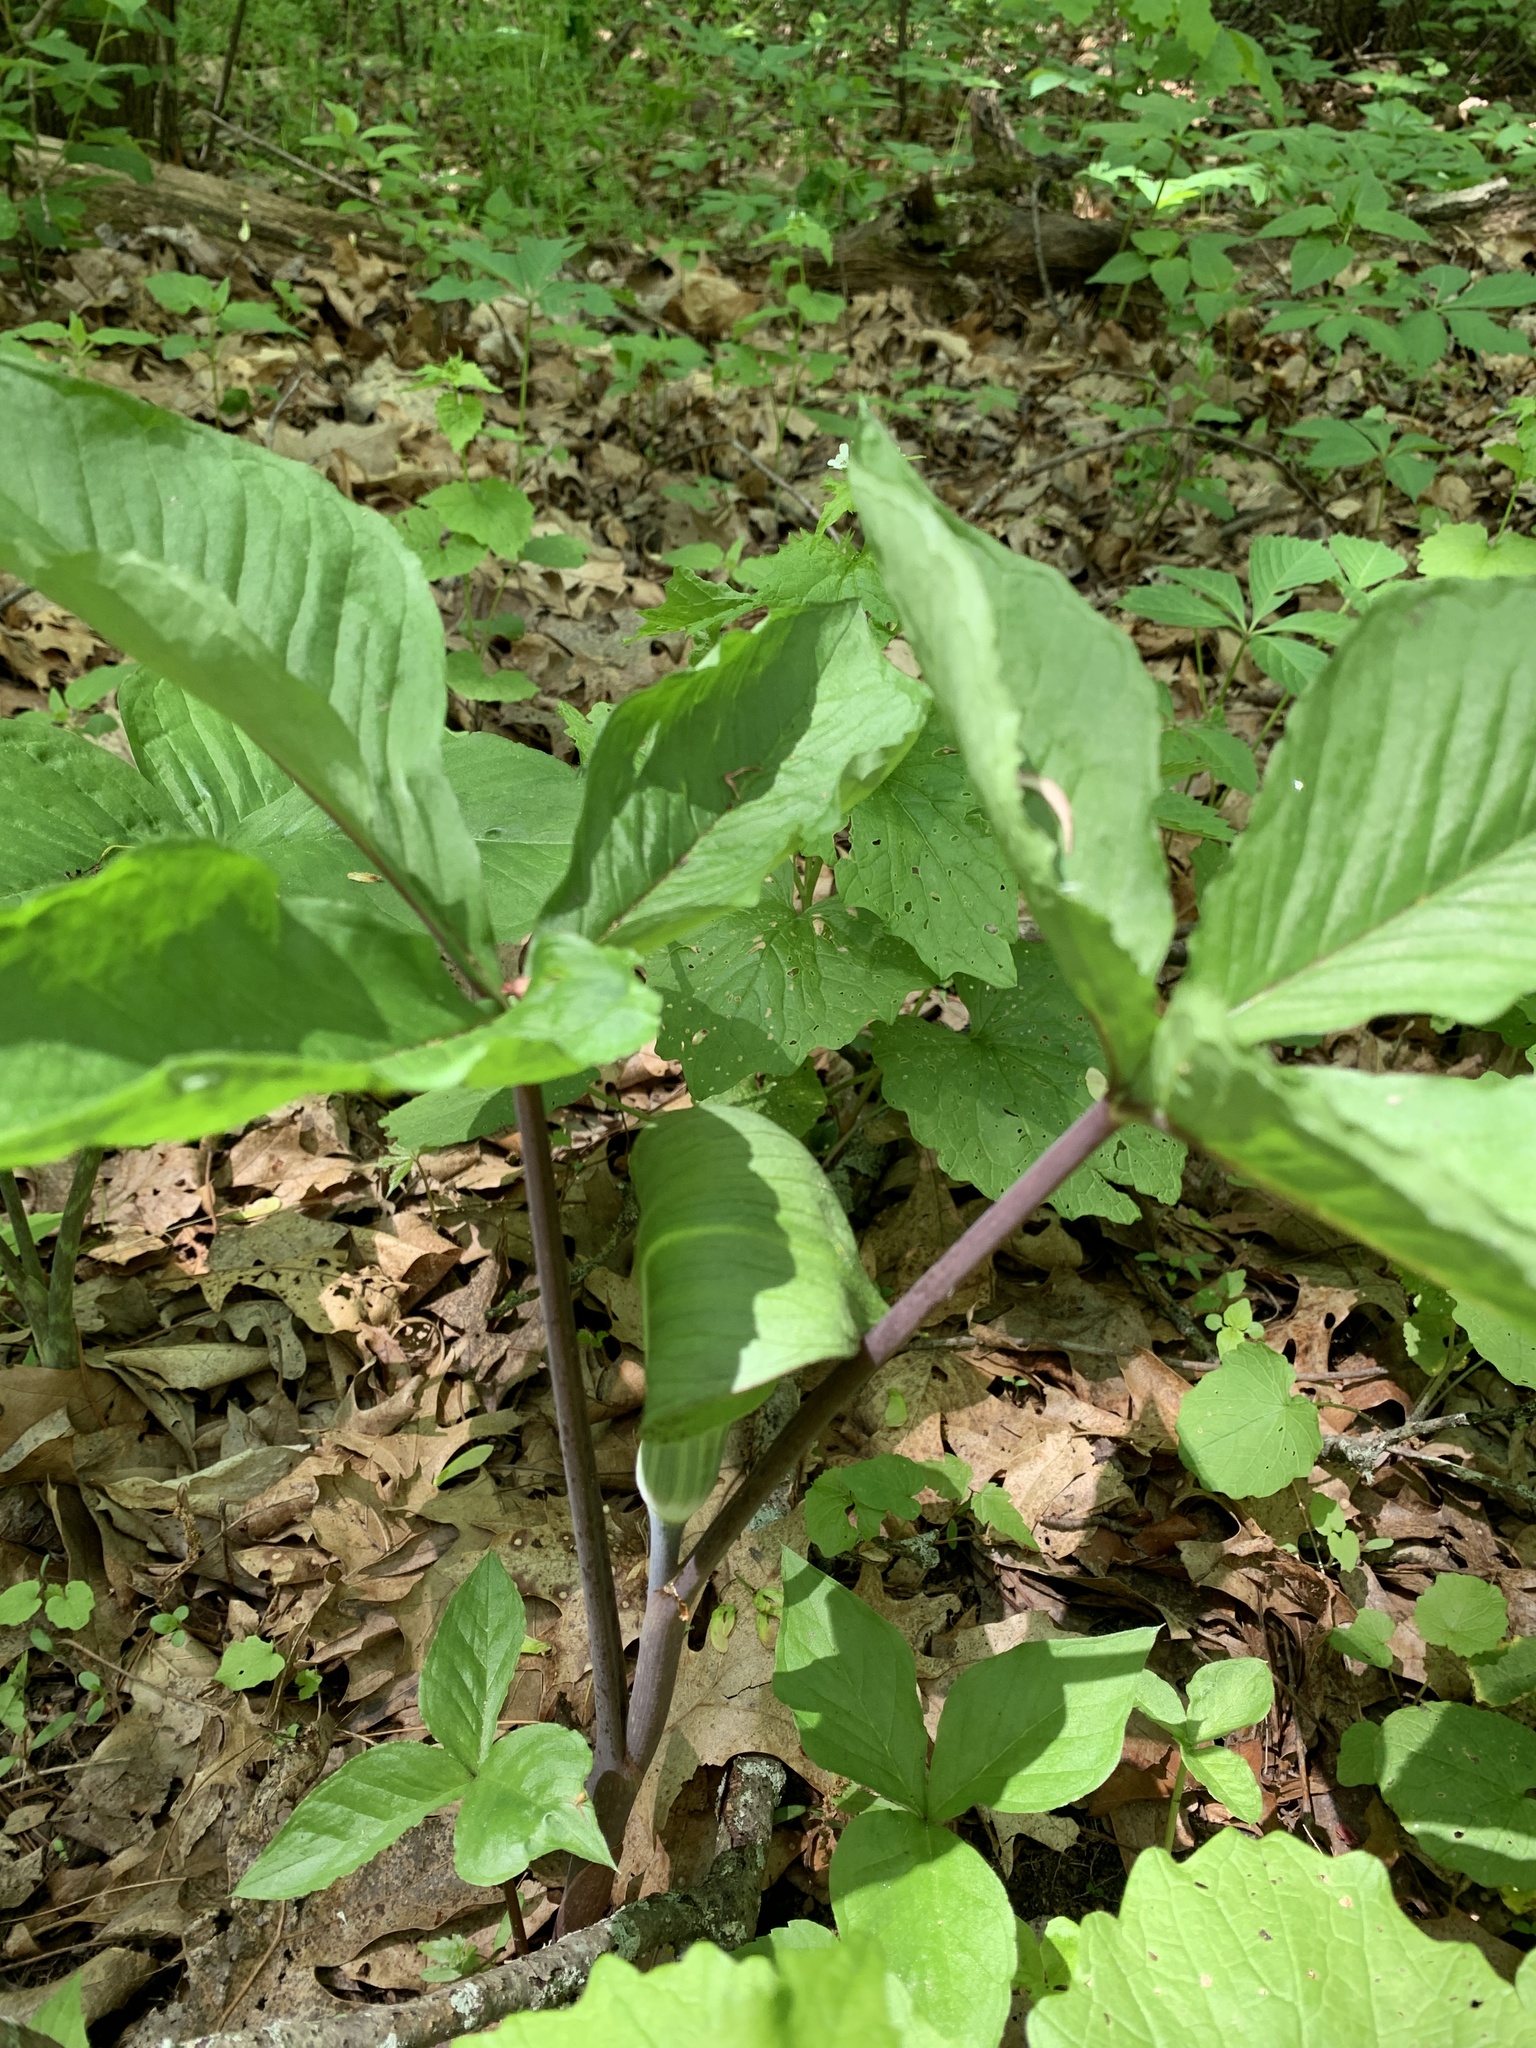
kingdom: Plantae
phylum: Tracheophyta
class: Liliopsida
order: Alismatales
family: Araceae
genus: Arisaema
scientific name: Arisaema triphyllum
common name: Jack-in-the-pulpit
